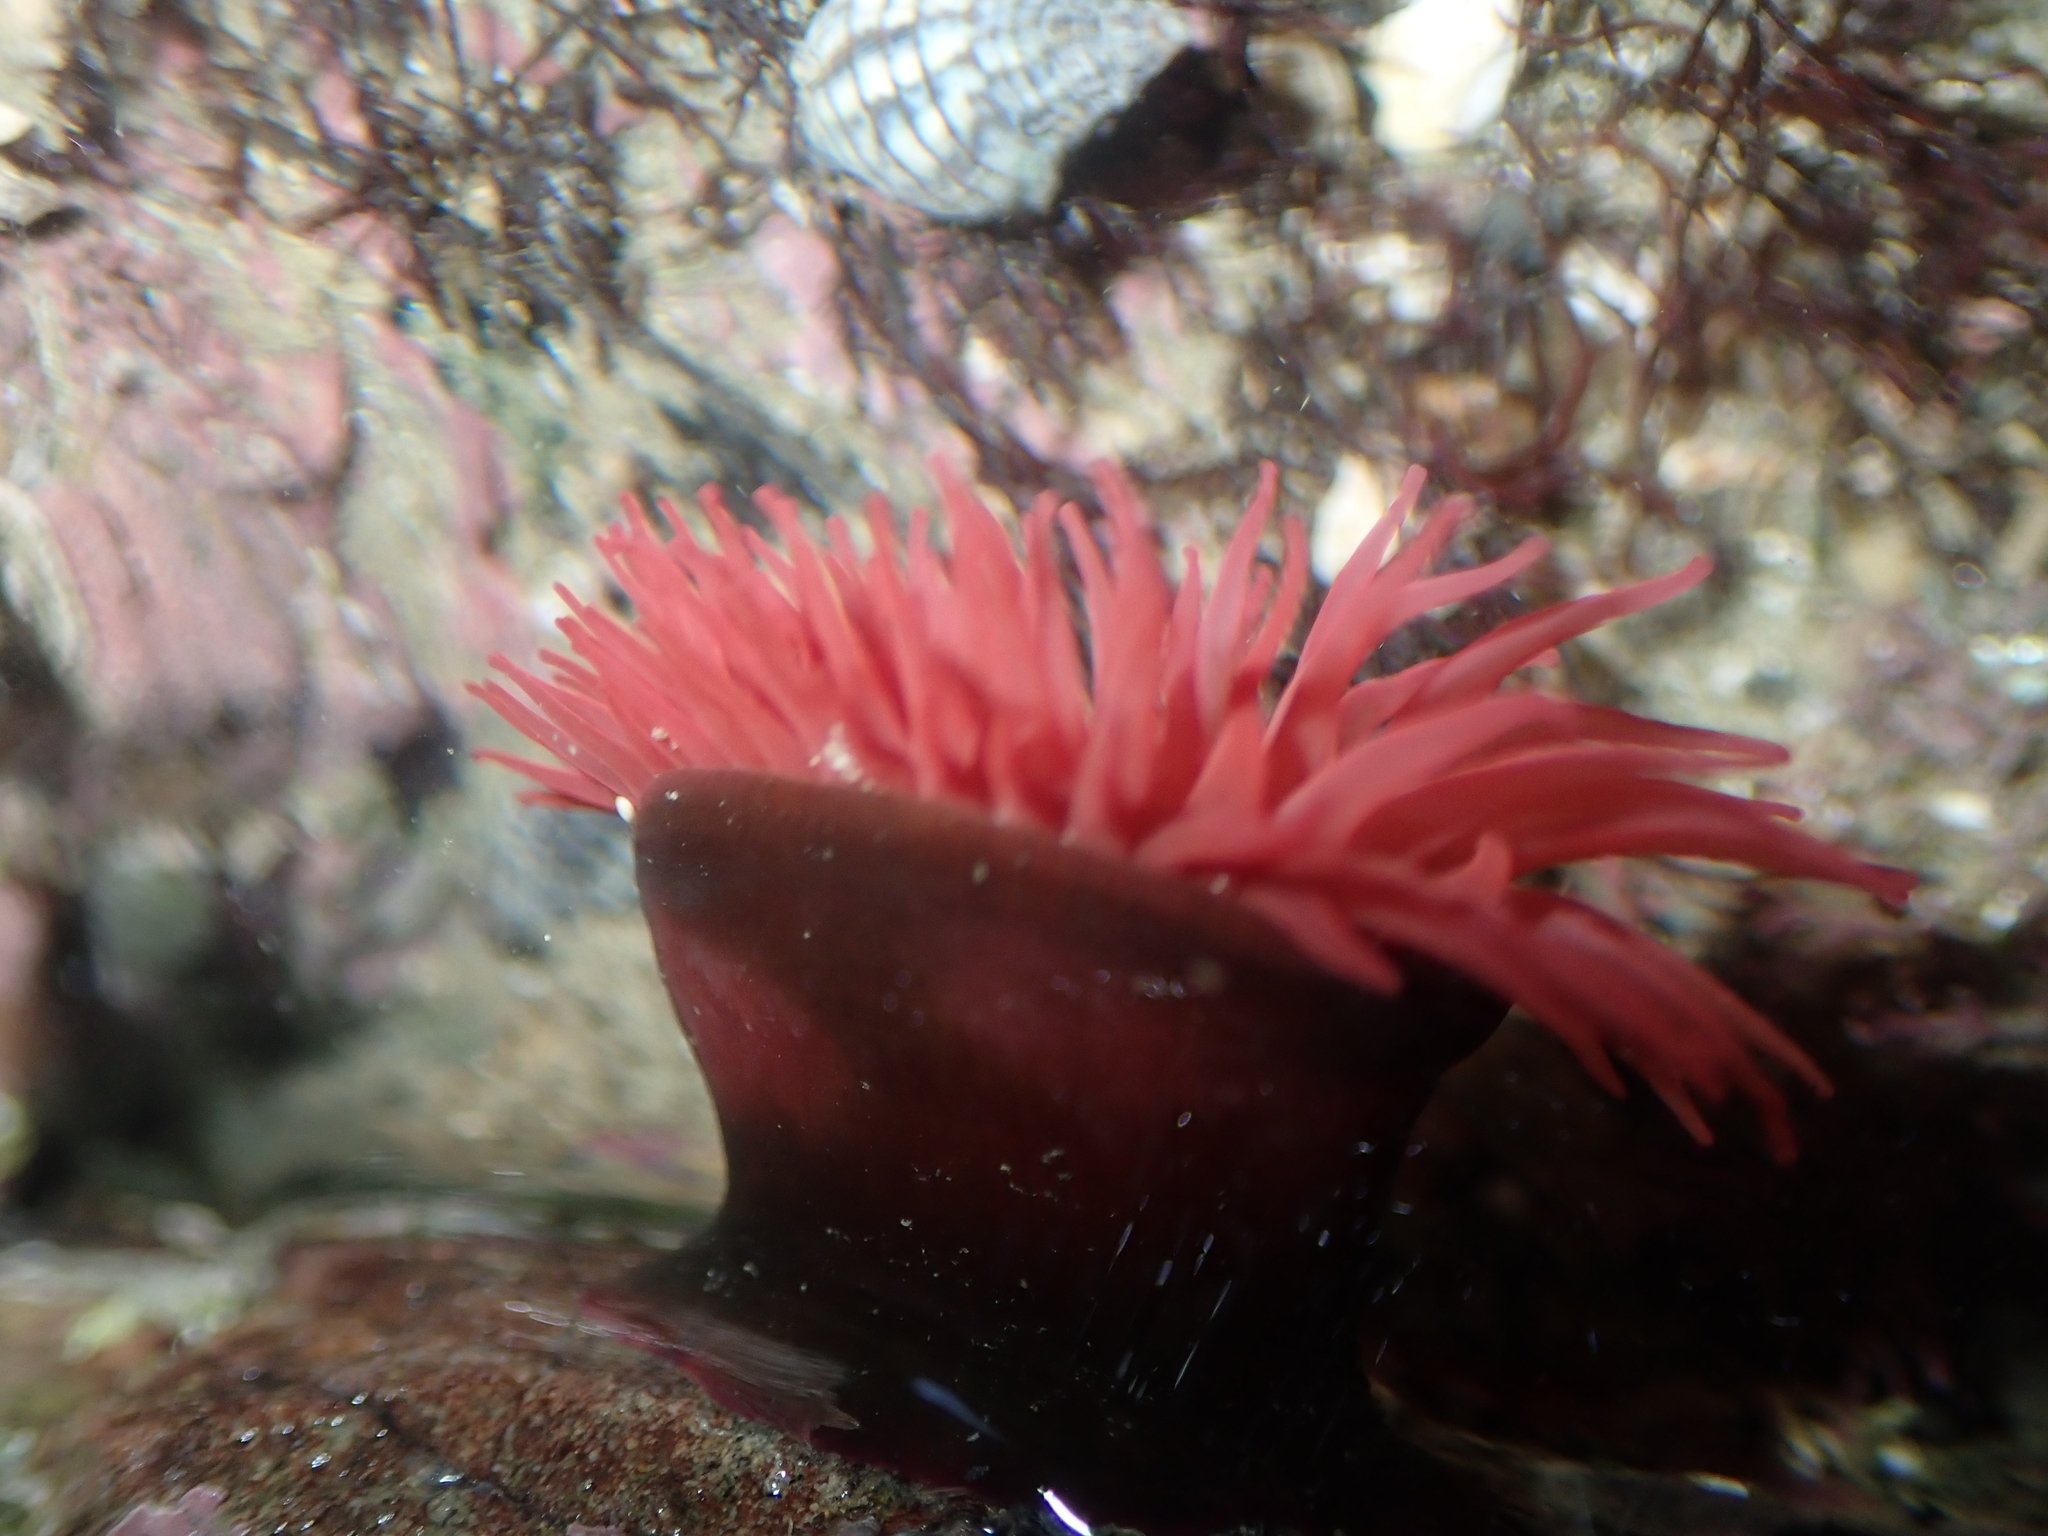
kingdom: Animalia
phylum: Cnidaria
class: Anthozoa
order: Actiniaria
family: Actiniidae
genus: Actinia
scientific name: Actinia tenebrosa
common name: Waratah anemone
